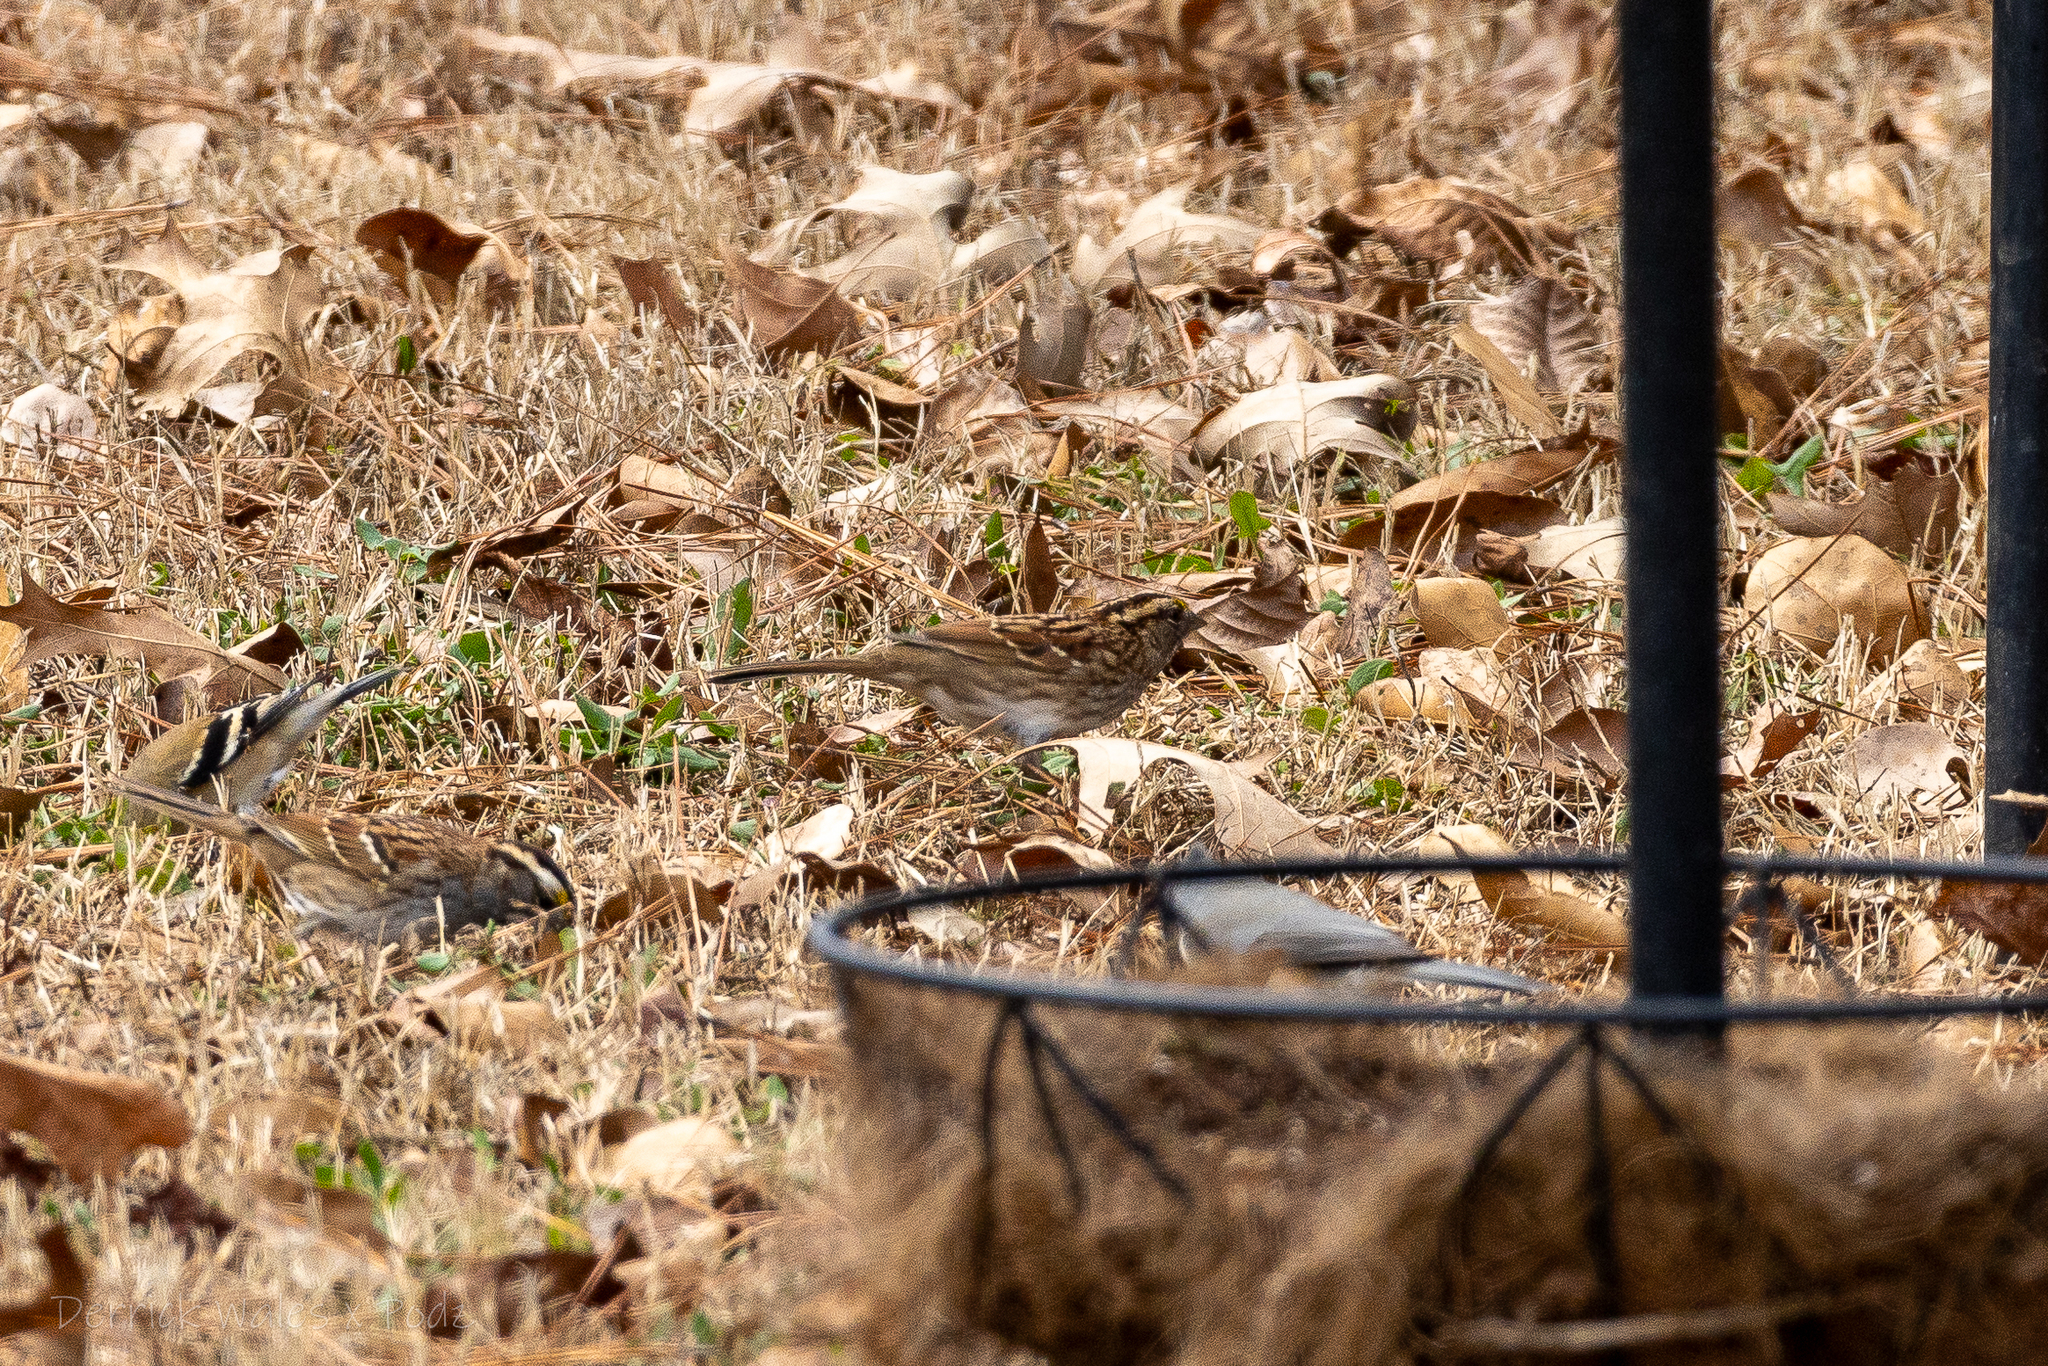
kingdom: Animalia
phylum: Chordata
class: Aves
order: Passeriformes
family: Passerellidae
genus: Zonotrichia
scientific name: Zonotrichia albicollis
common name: White-throated sparrow
